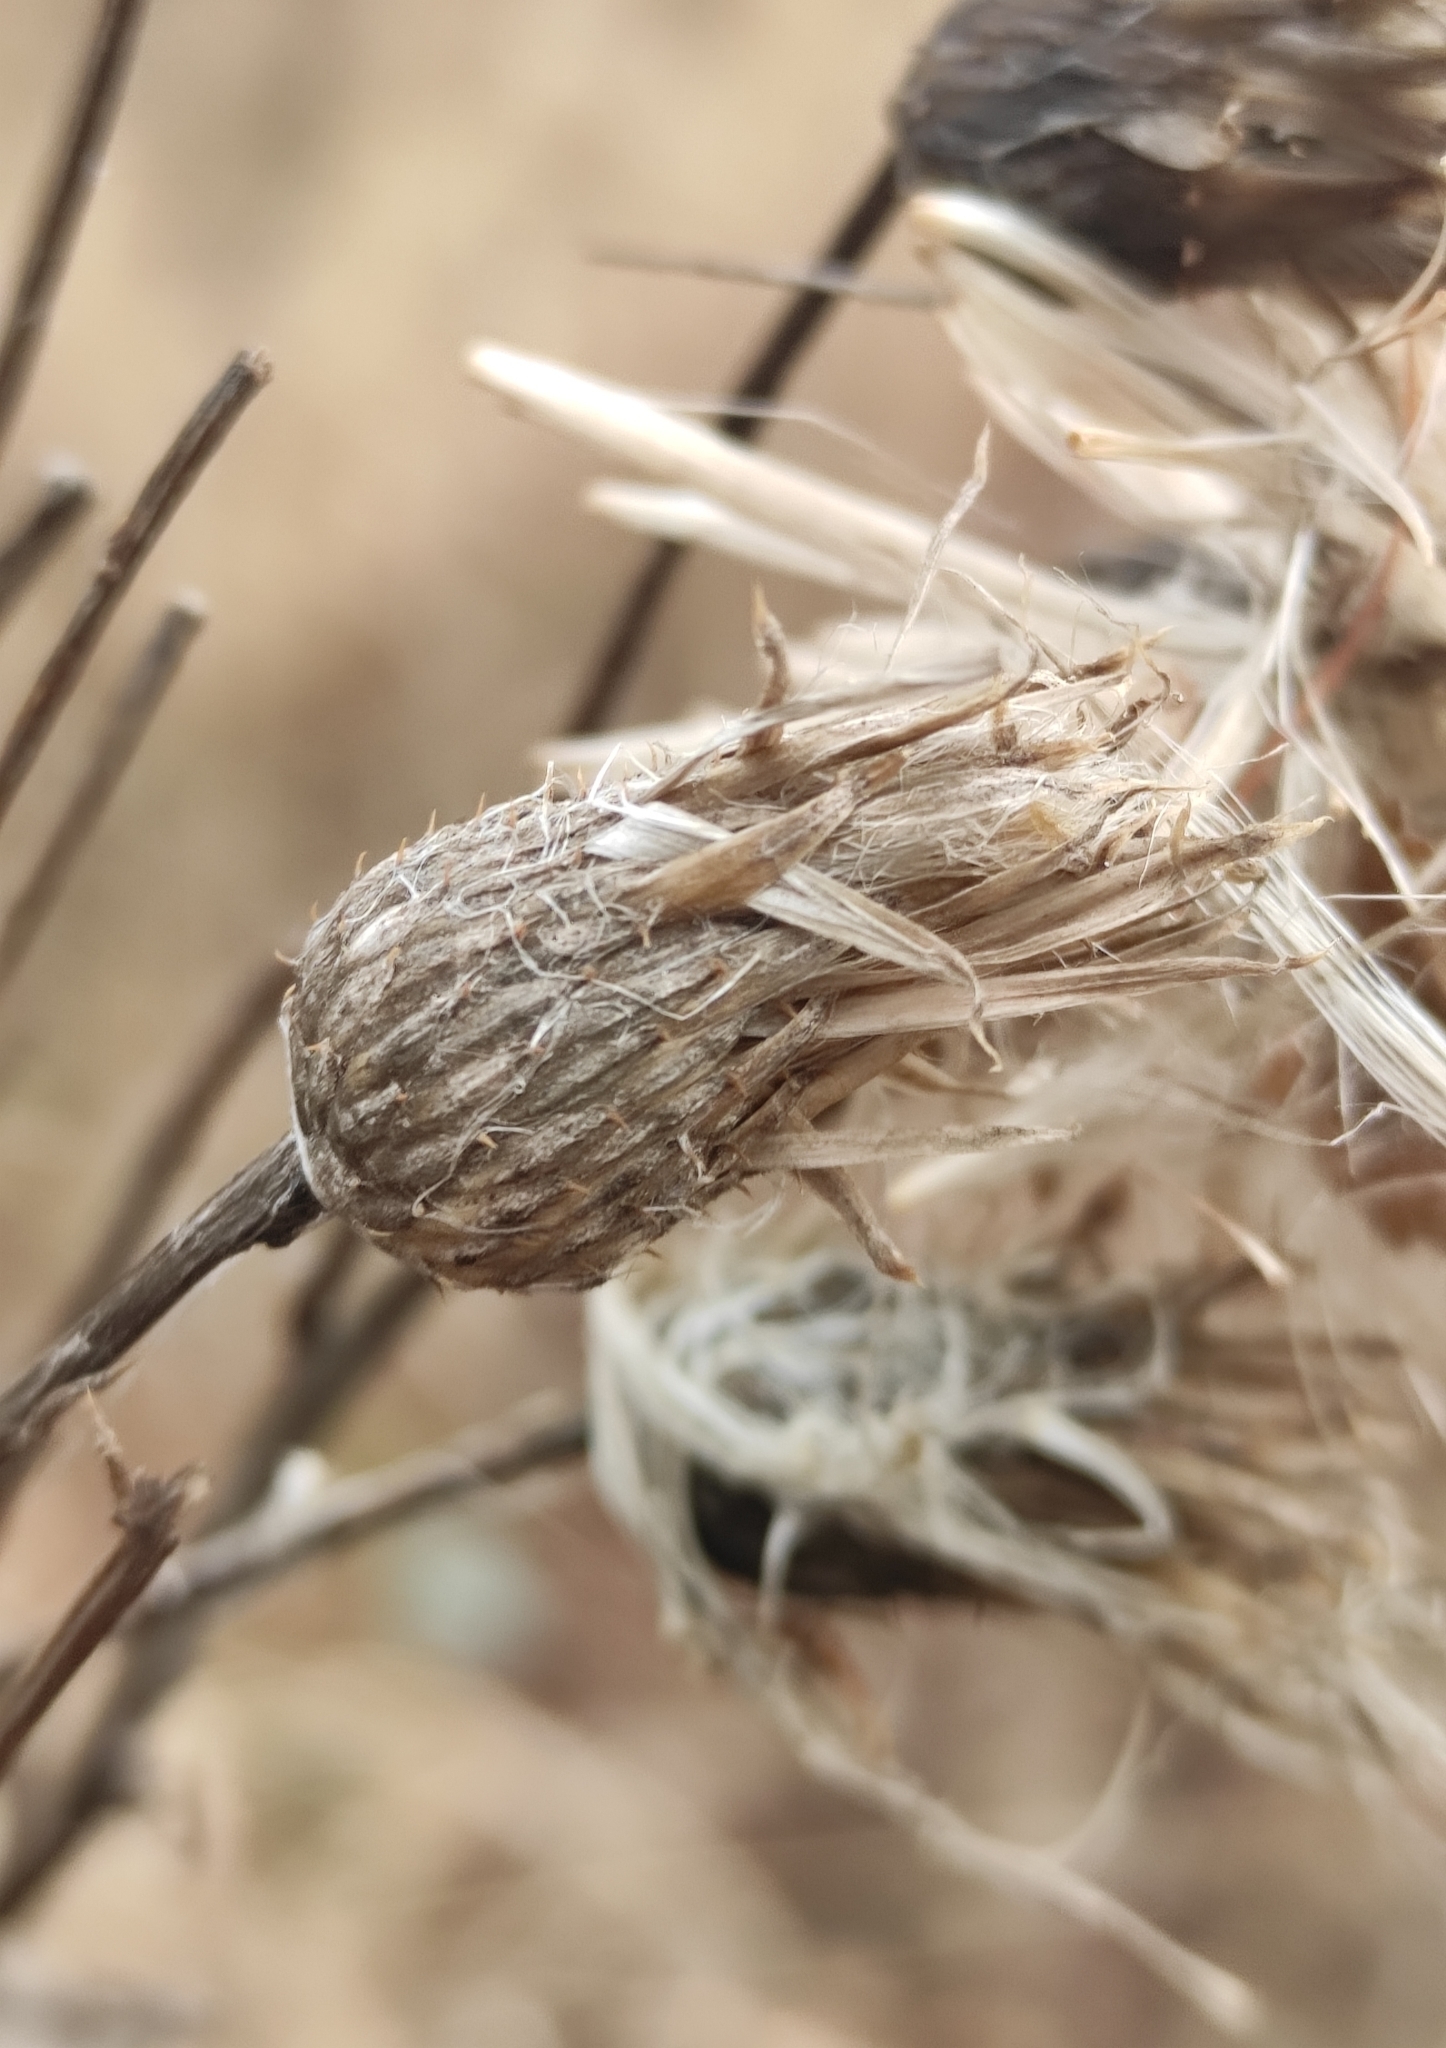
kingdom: Plantae
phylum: Tracheophyta
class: Magnoliopsida
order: Asterales
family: Asteraceae
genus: Cirsium
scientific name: Cirsium arvense
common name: Creeping thistle
